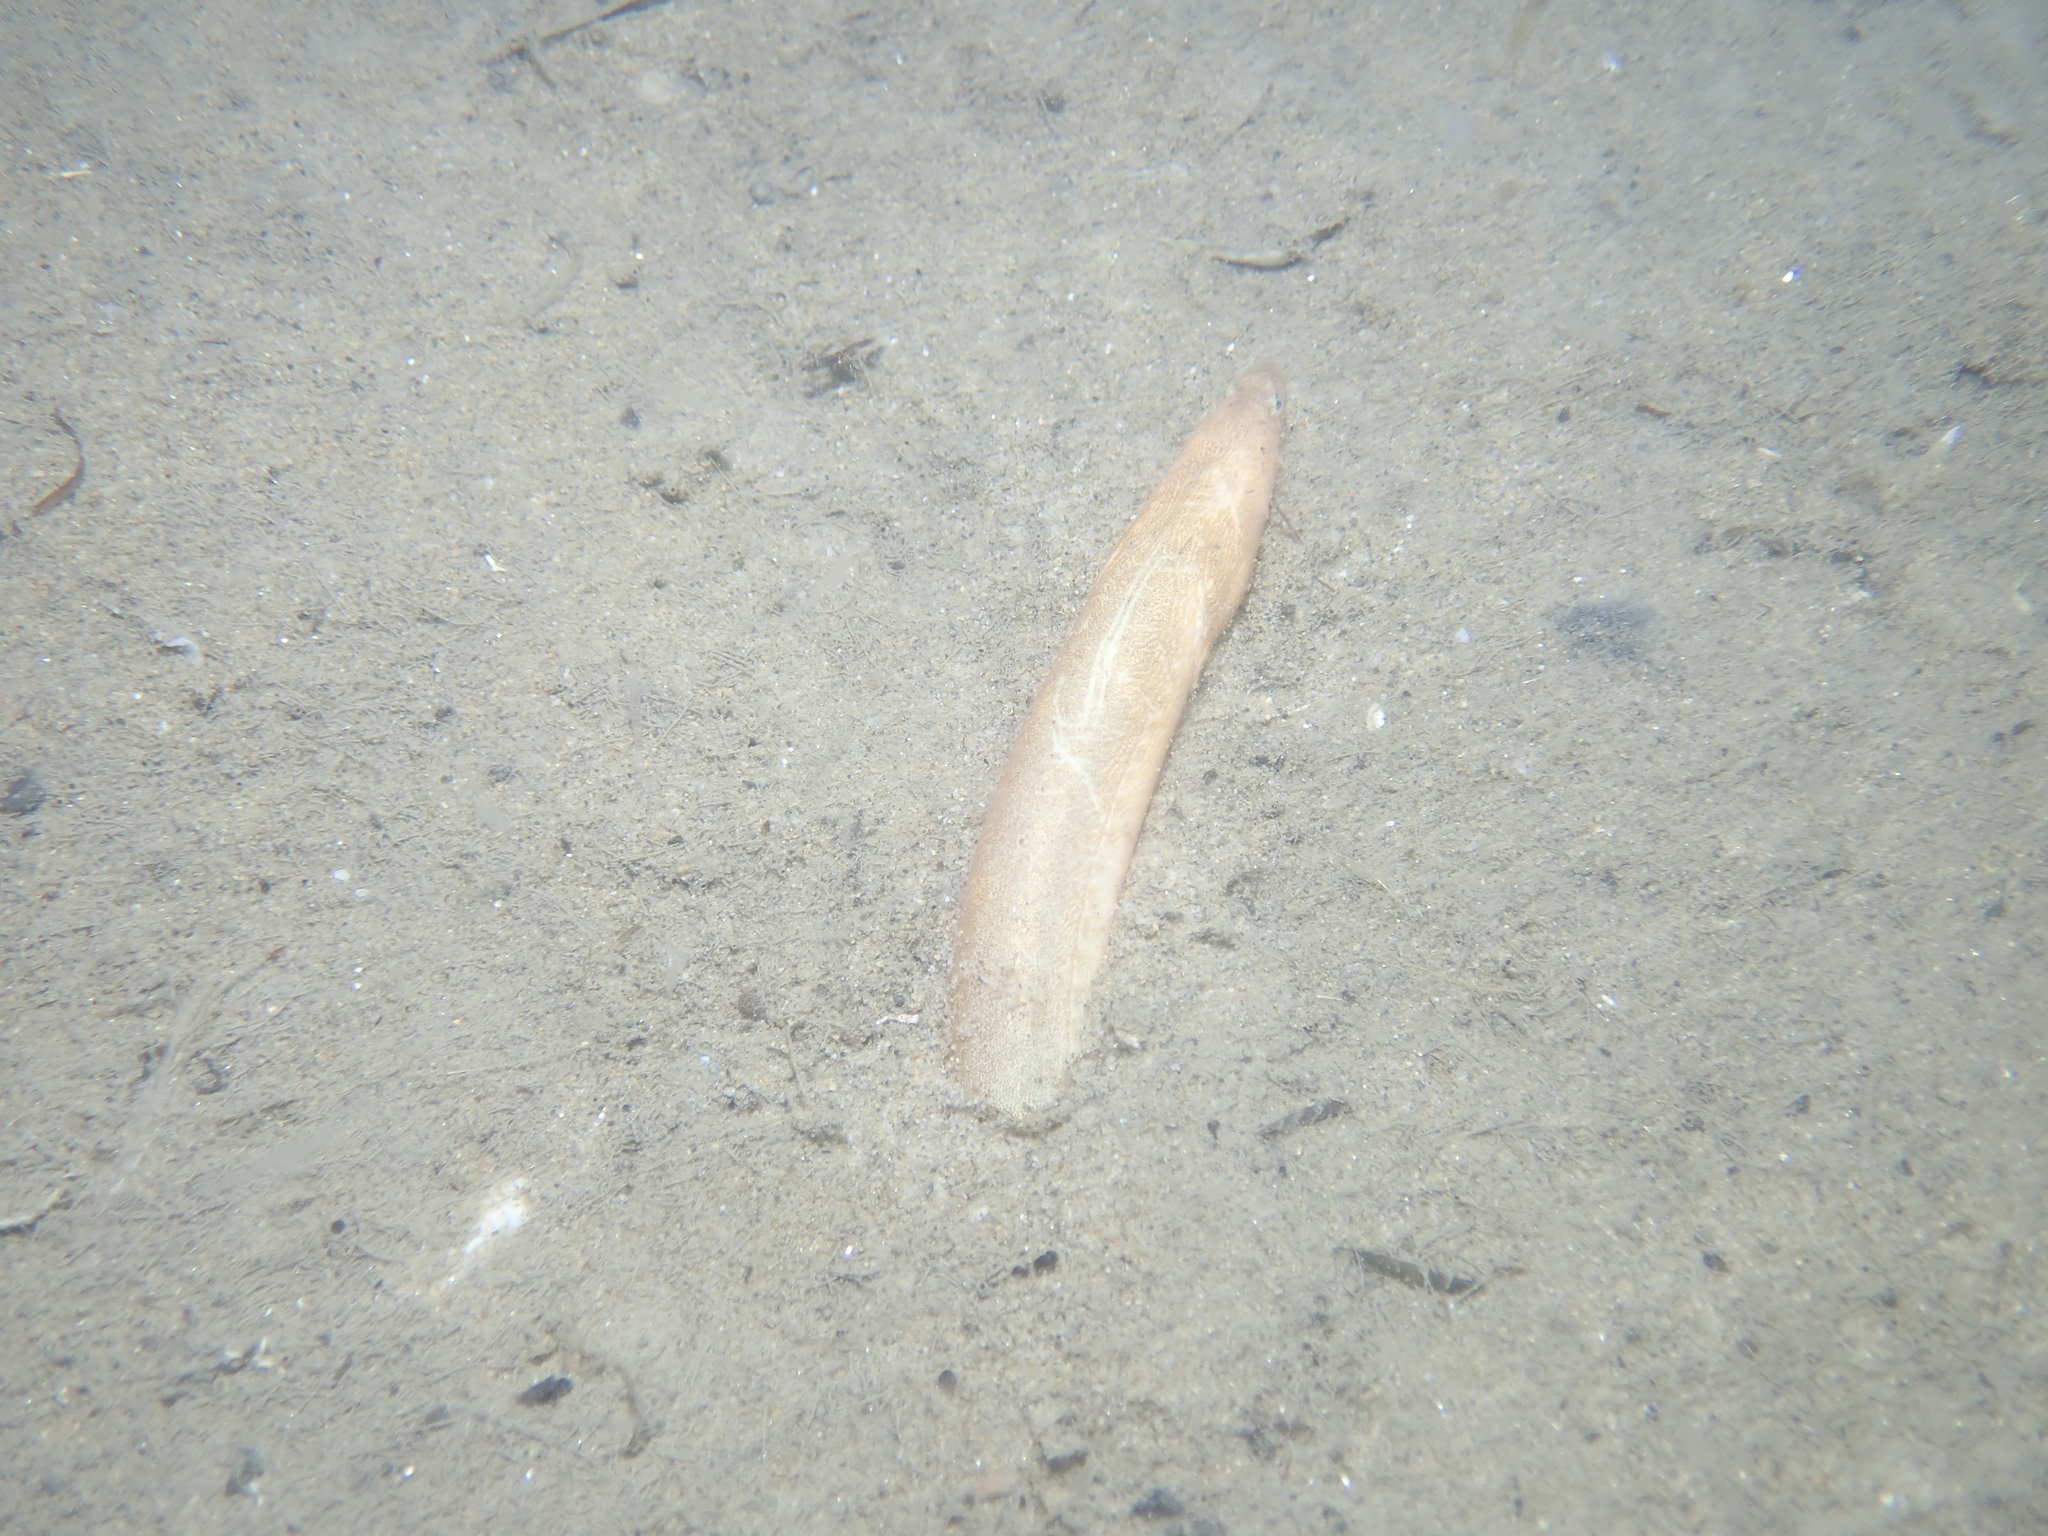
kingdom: Animalia
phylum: Chordata
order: Anguilliformes
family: Ophichthidae
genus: Dalophis
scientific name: Dalophis imberbis
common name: Armless snake eel
